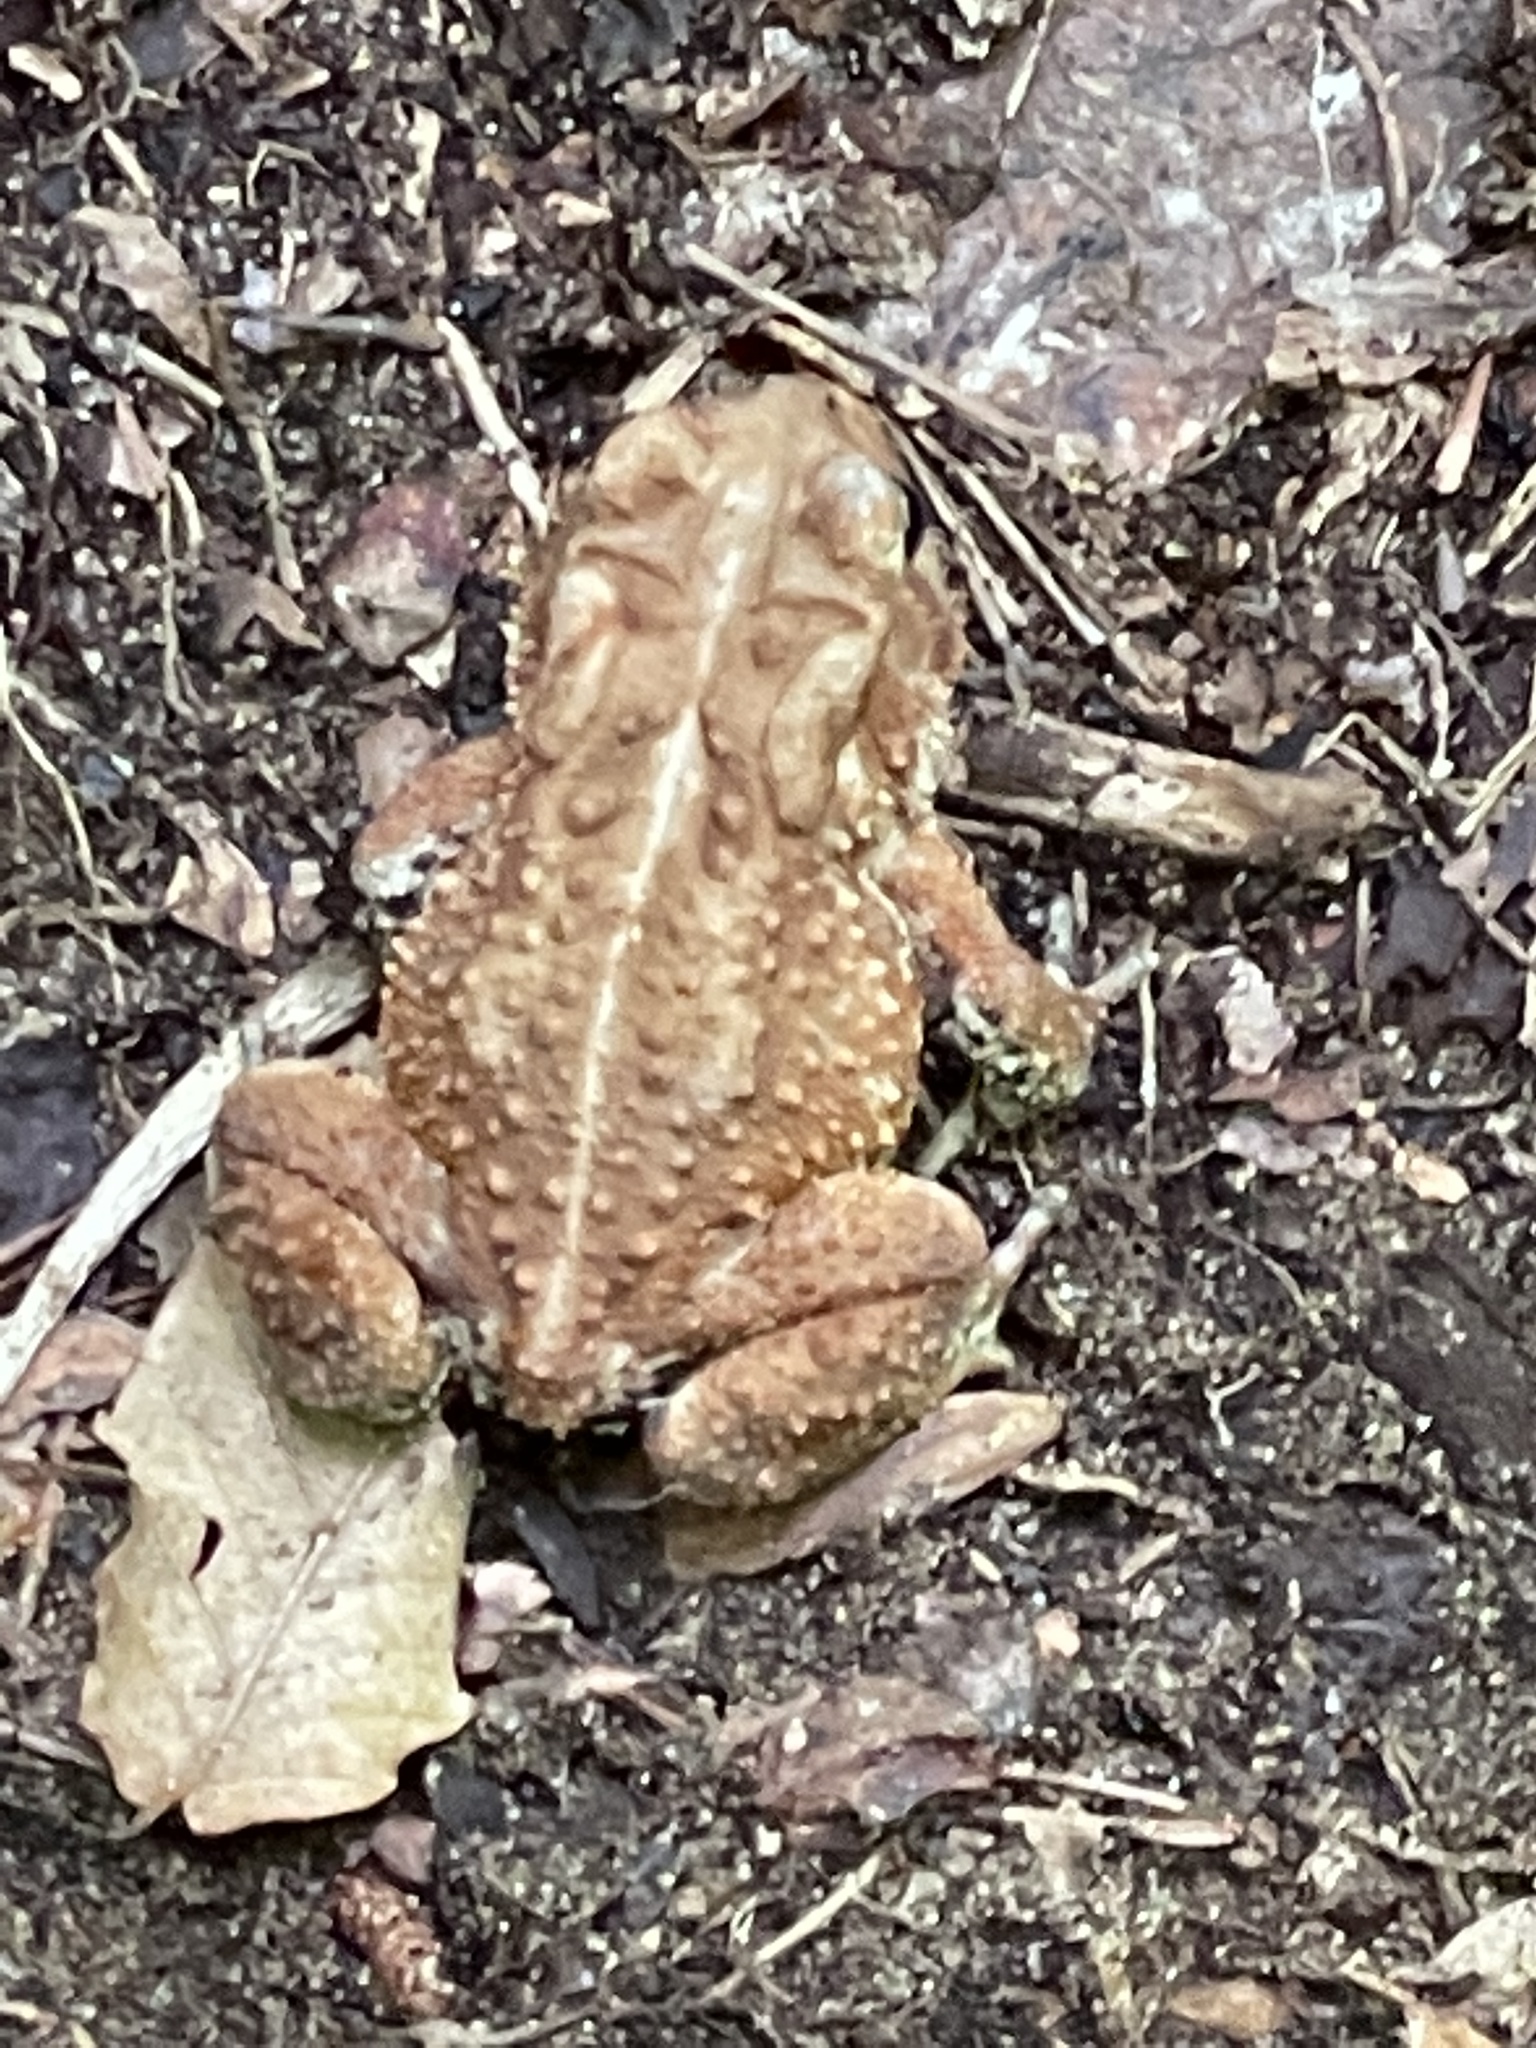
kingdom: Animalia
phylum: Chordata
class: Amphibia
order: Anura
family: Bufonidae
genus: Anaxyrus
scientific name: Anaxyrus americanus
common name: American toad
